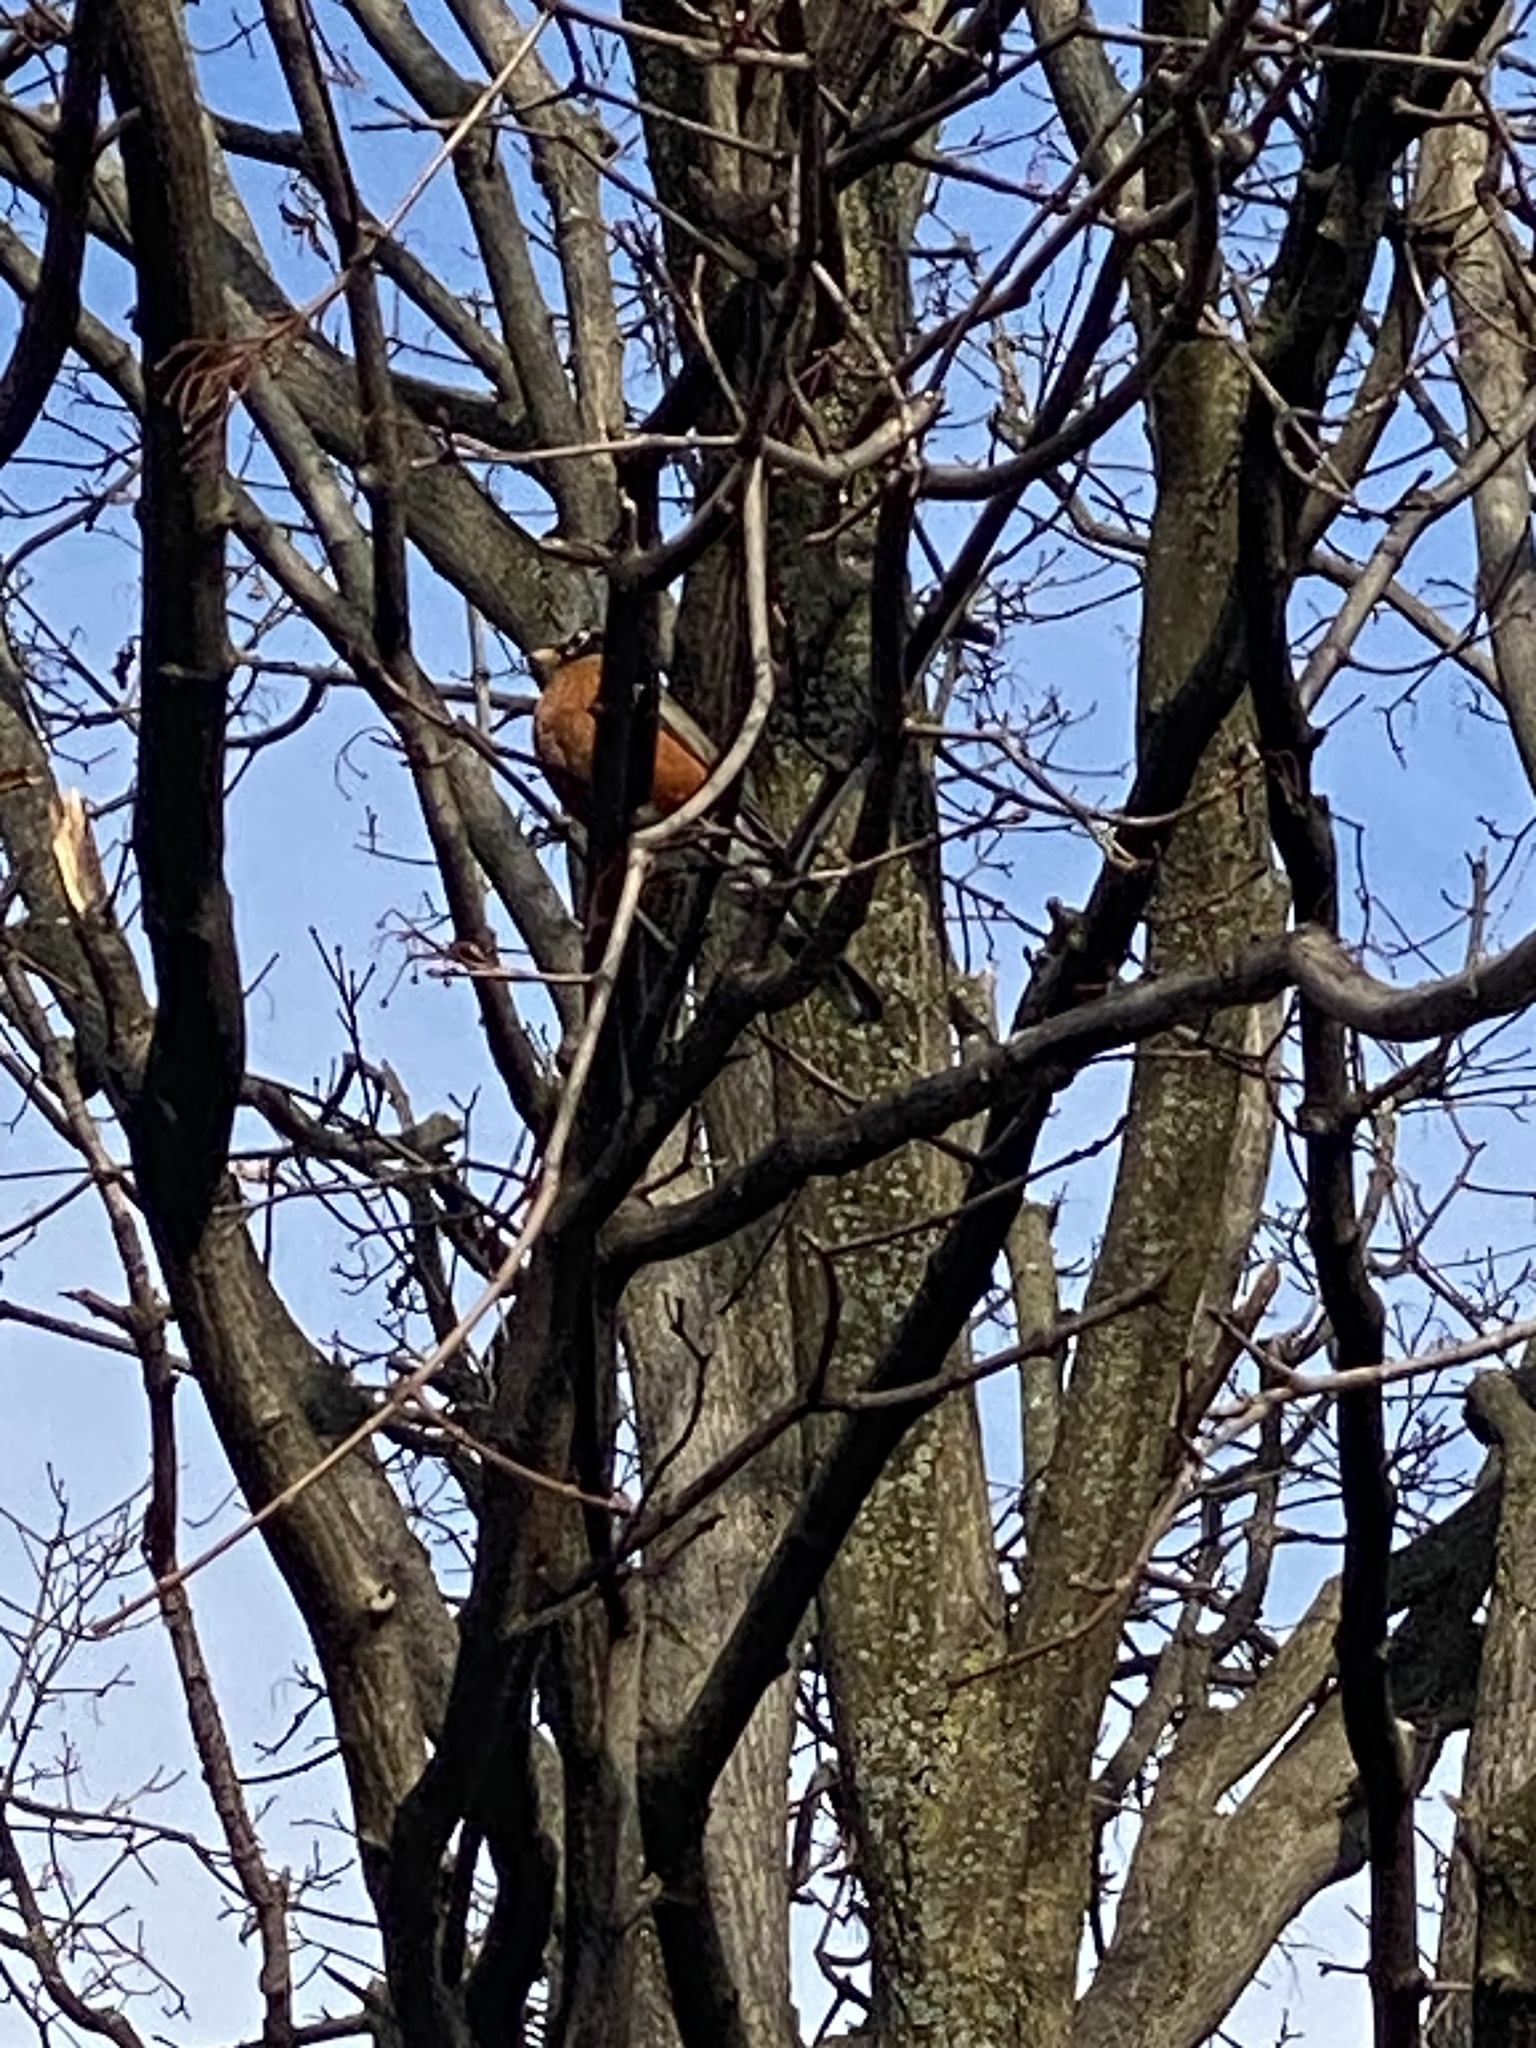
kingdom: Animalia
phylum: Chordata
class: Aves
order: Passeriformes
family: Turdidae
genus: Turdus
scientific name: Turdus migratorius
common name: American robin
